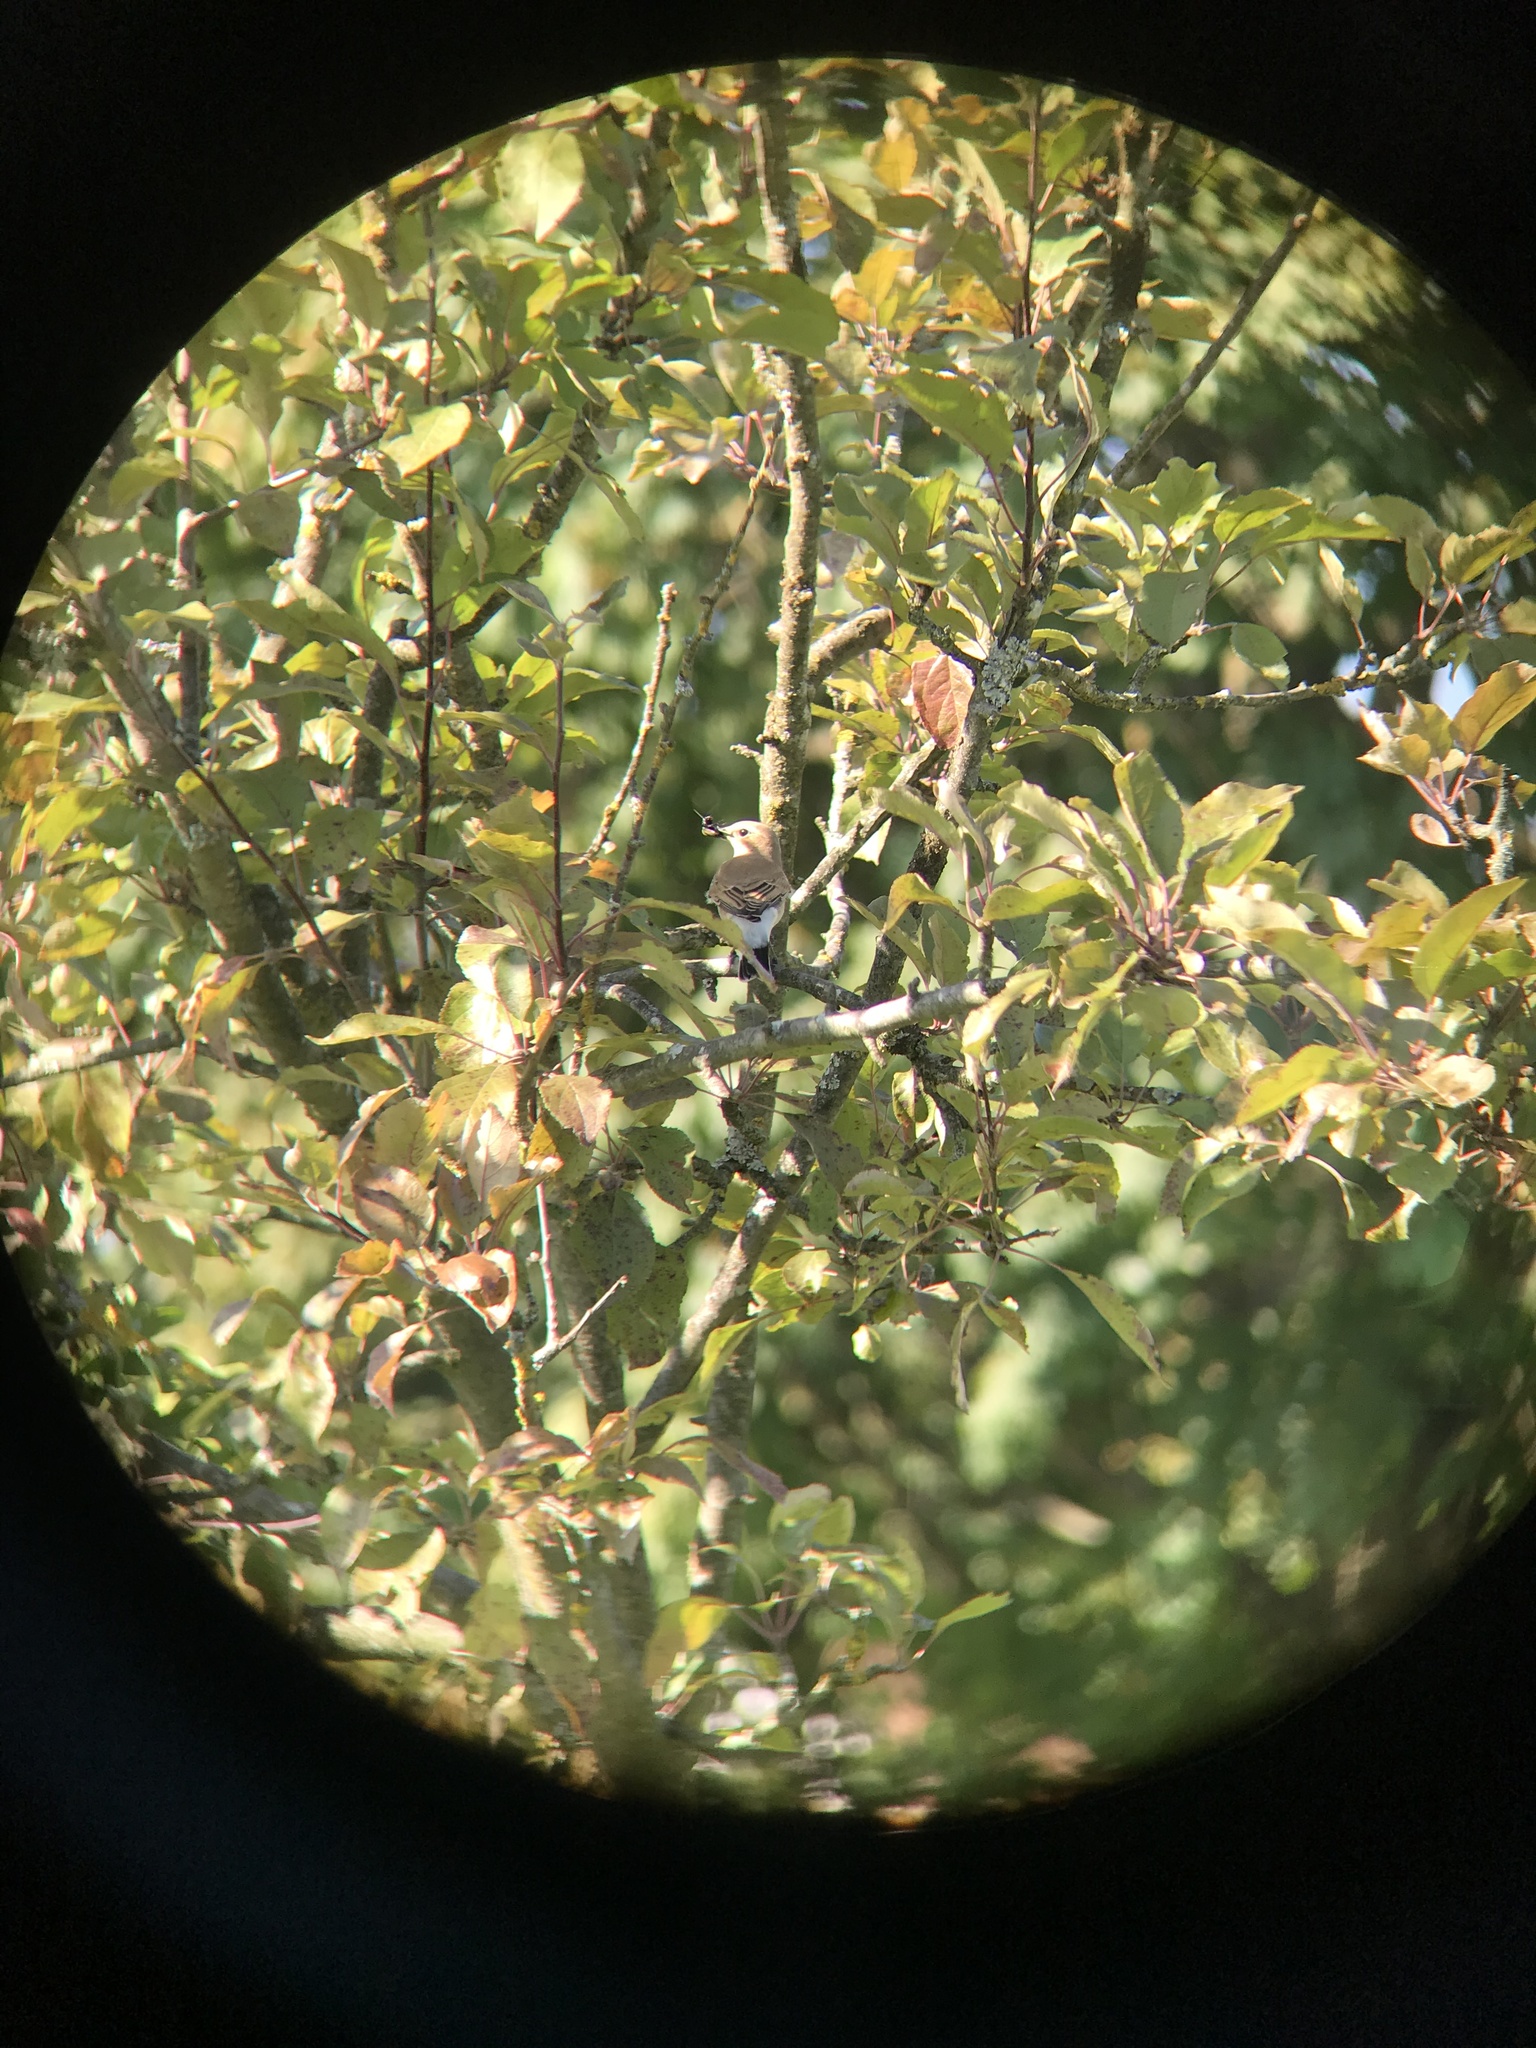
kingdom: Animalia
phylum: Chordata
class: Aves
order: Passeriformes
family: Muscicapidae
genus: Oenanthe
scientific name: Oenanthe oenanthe
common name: Northern wheatear
